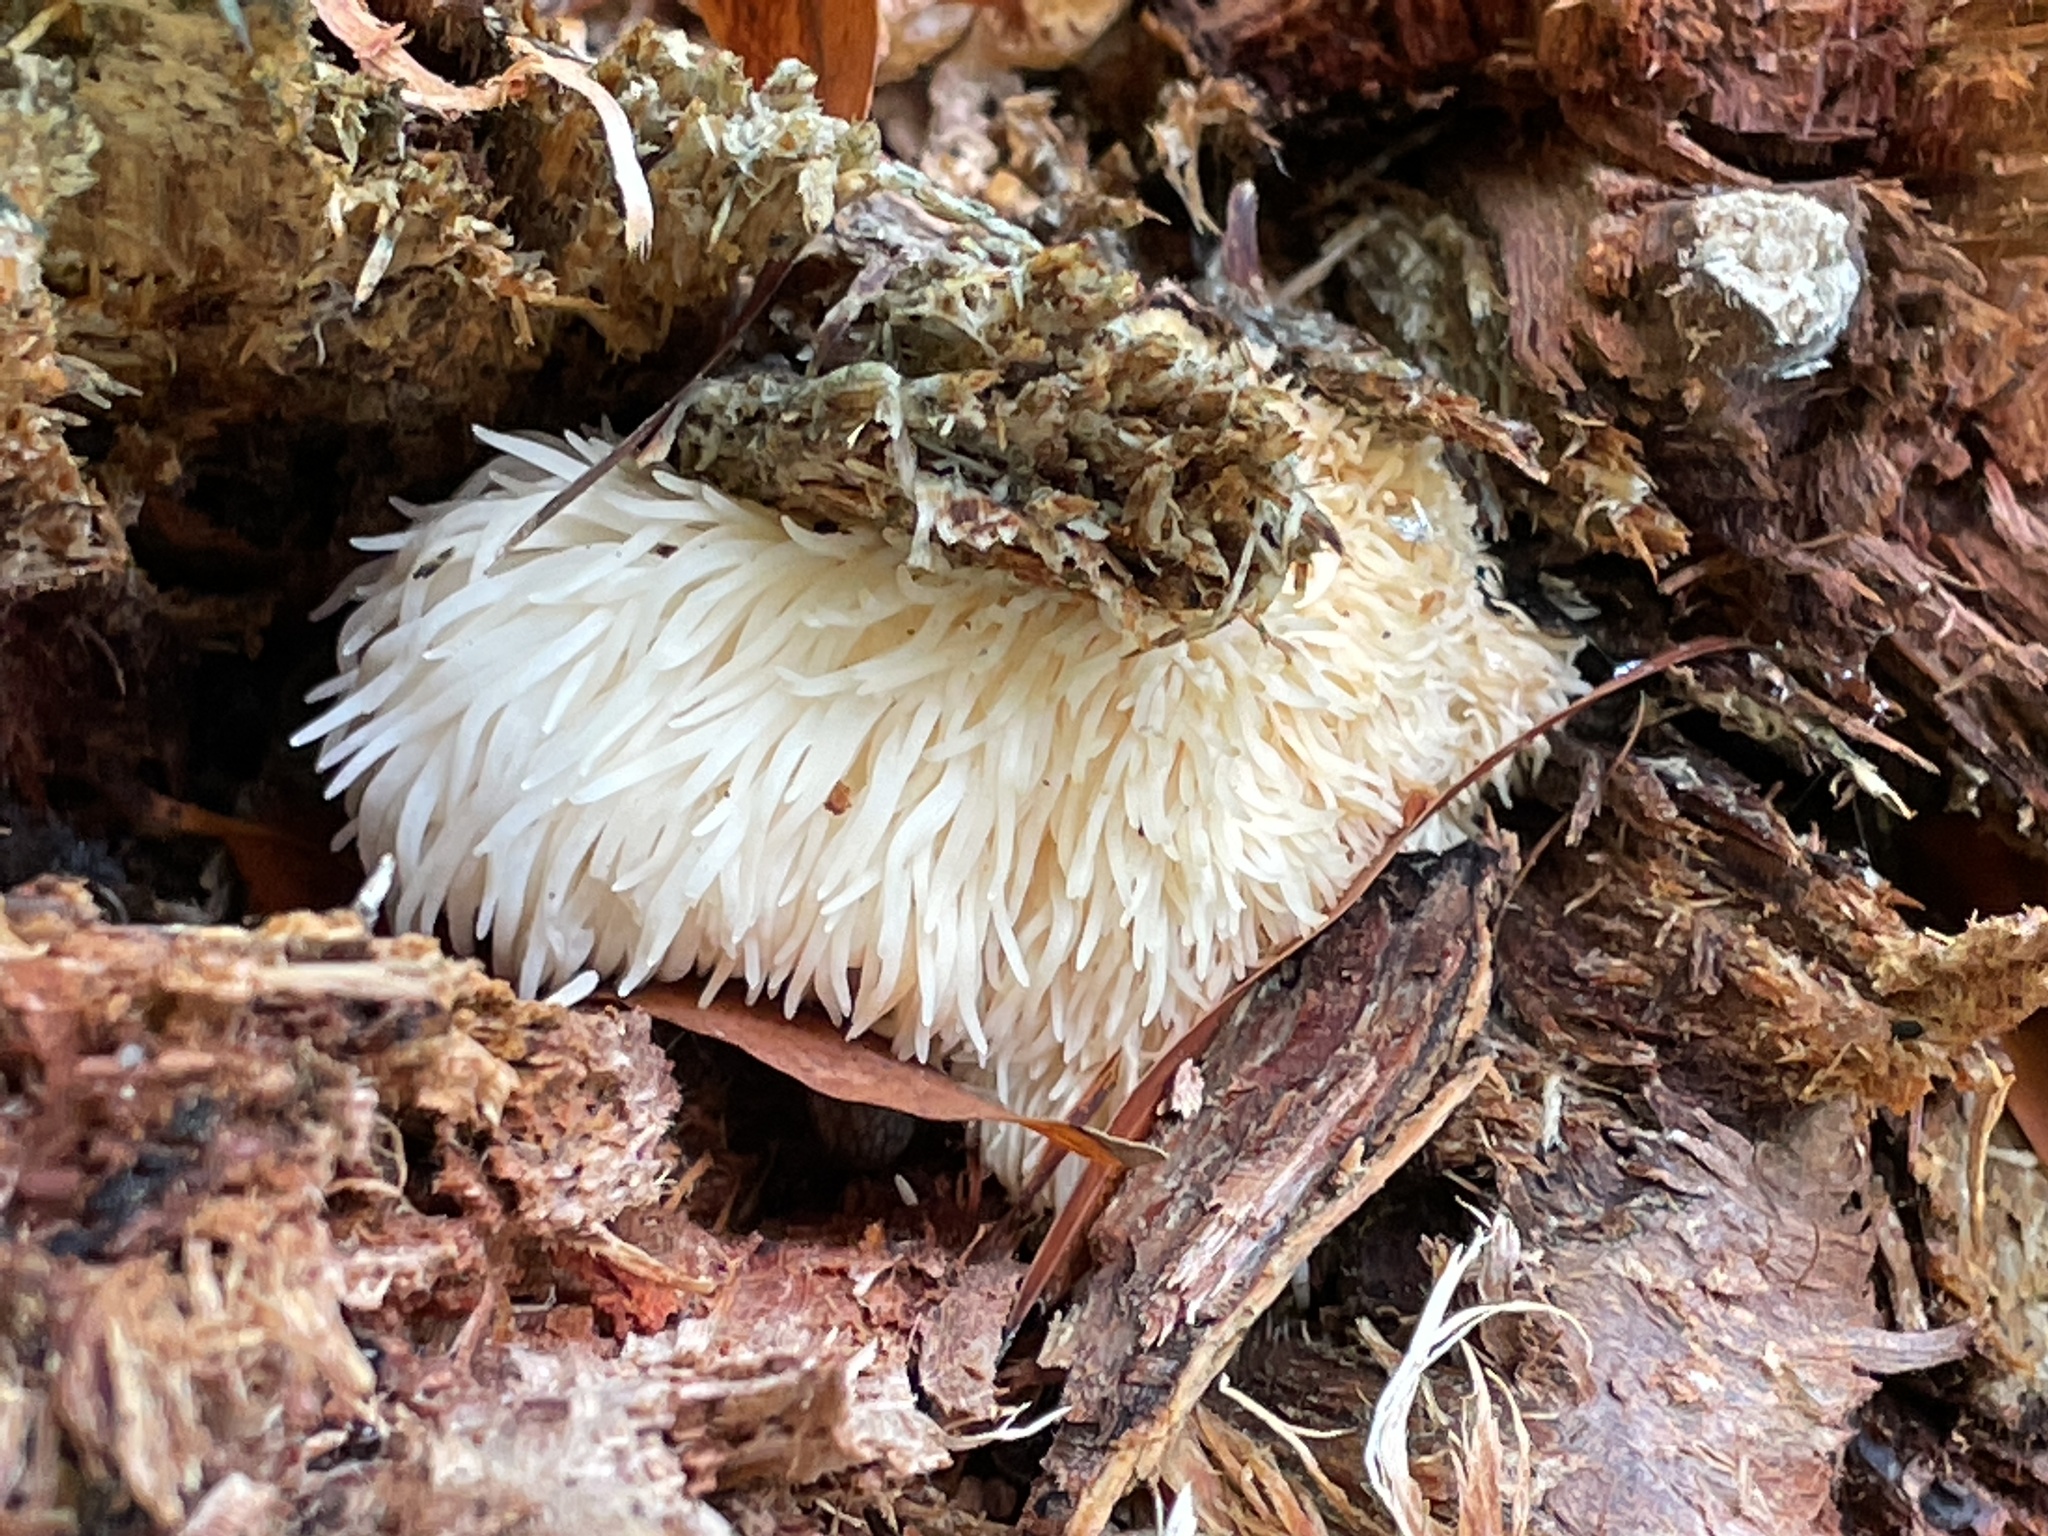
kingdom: Fungi
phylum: Basidiomycota
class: Agaricomycetes
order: Russulales
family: Hericiaceae
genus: Hericium
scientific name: Hericium erinaceus
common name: Bearded tooth
